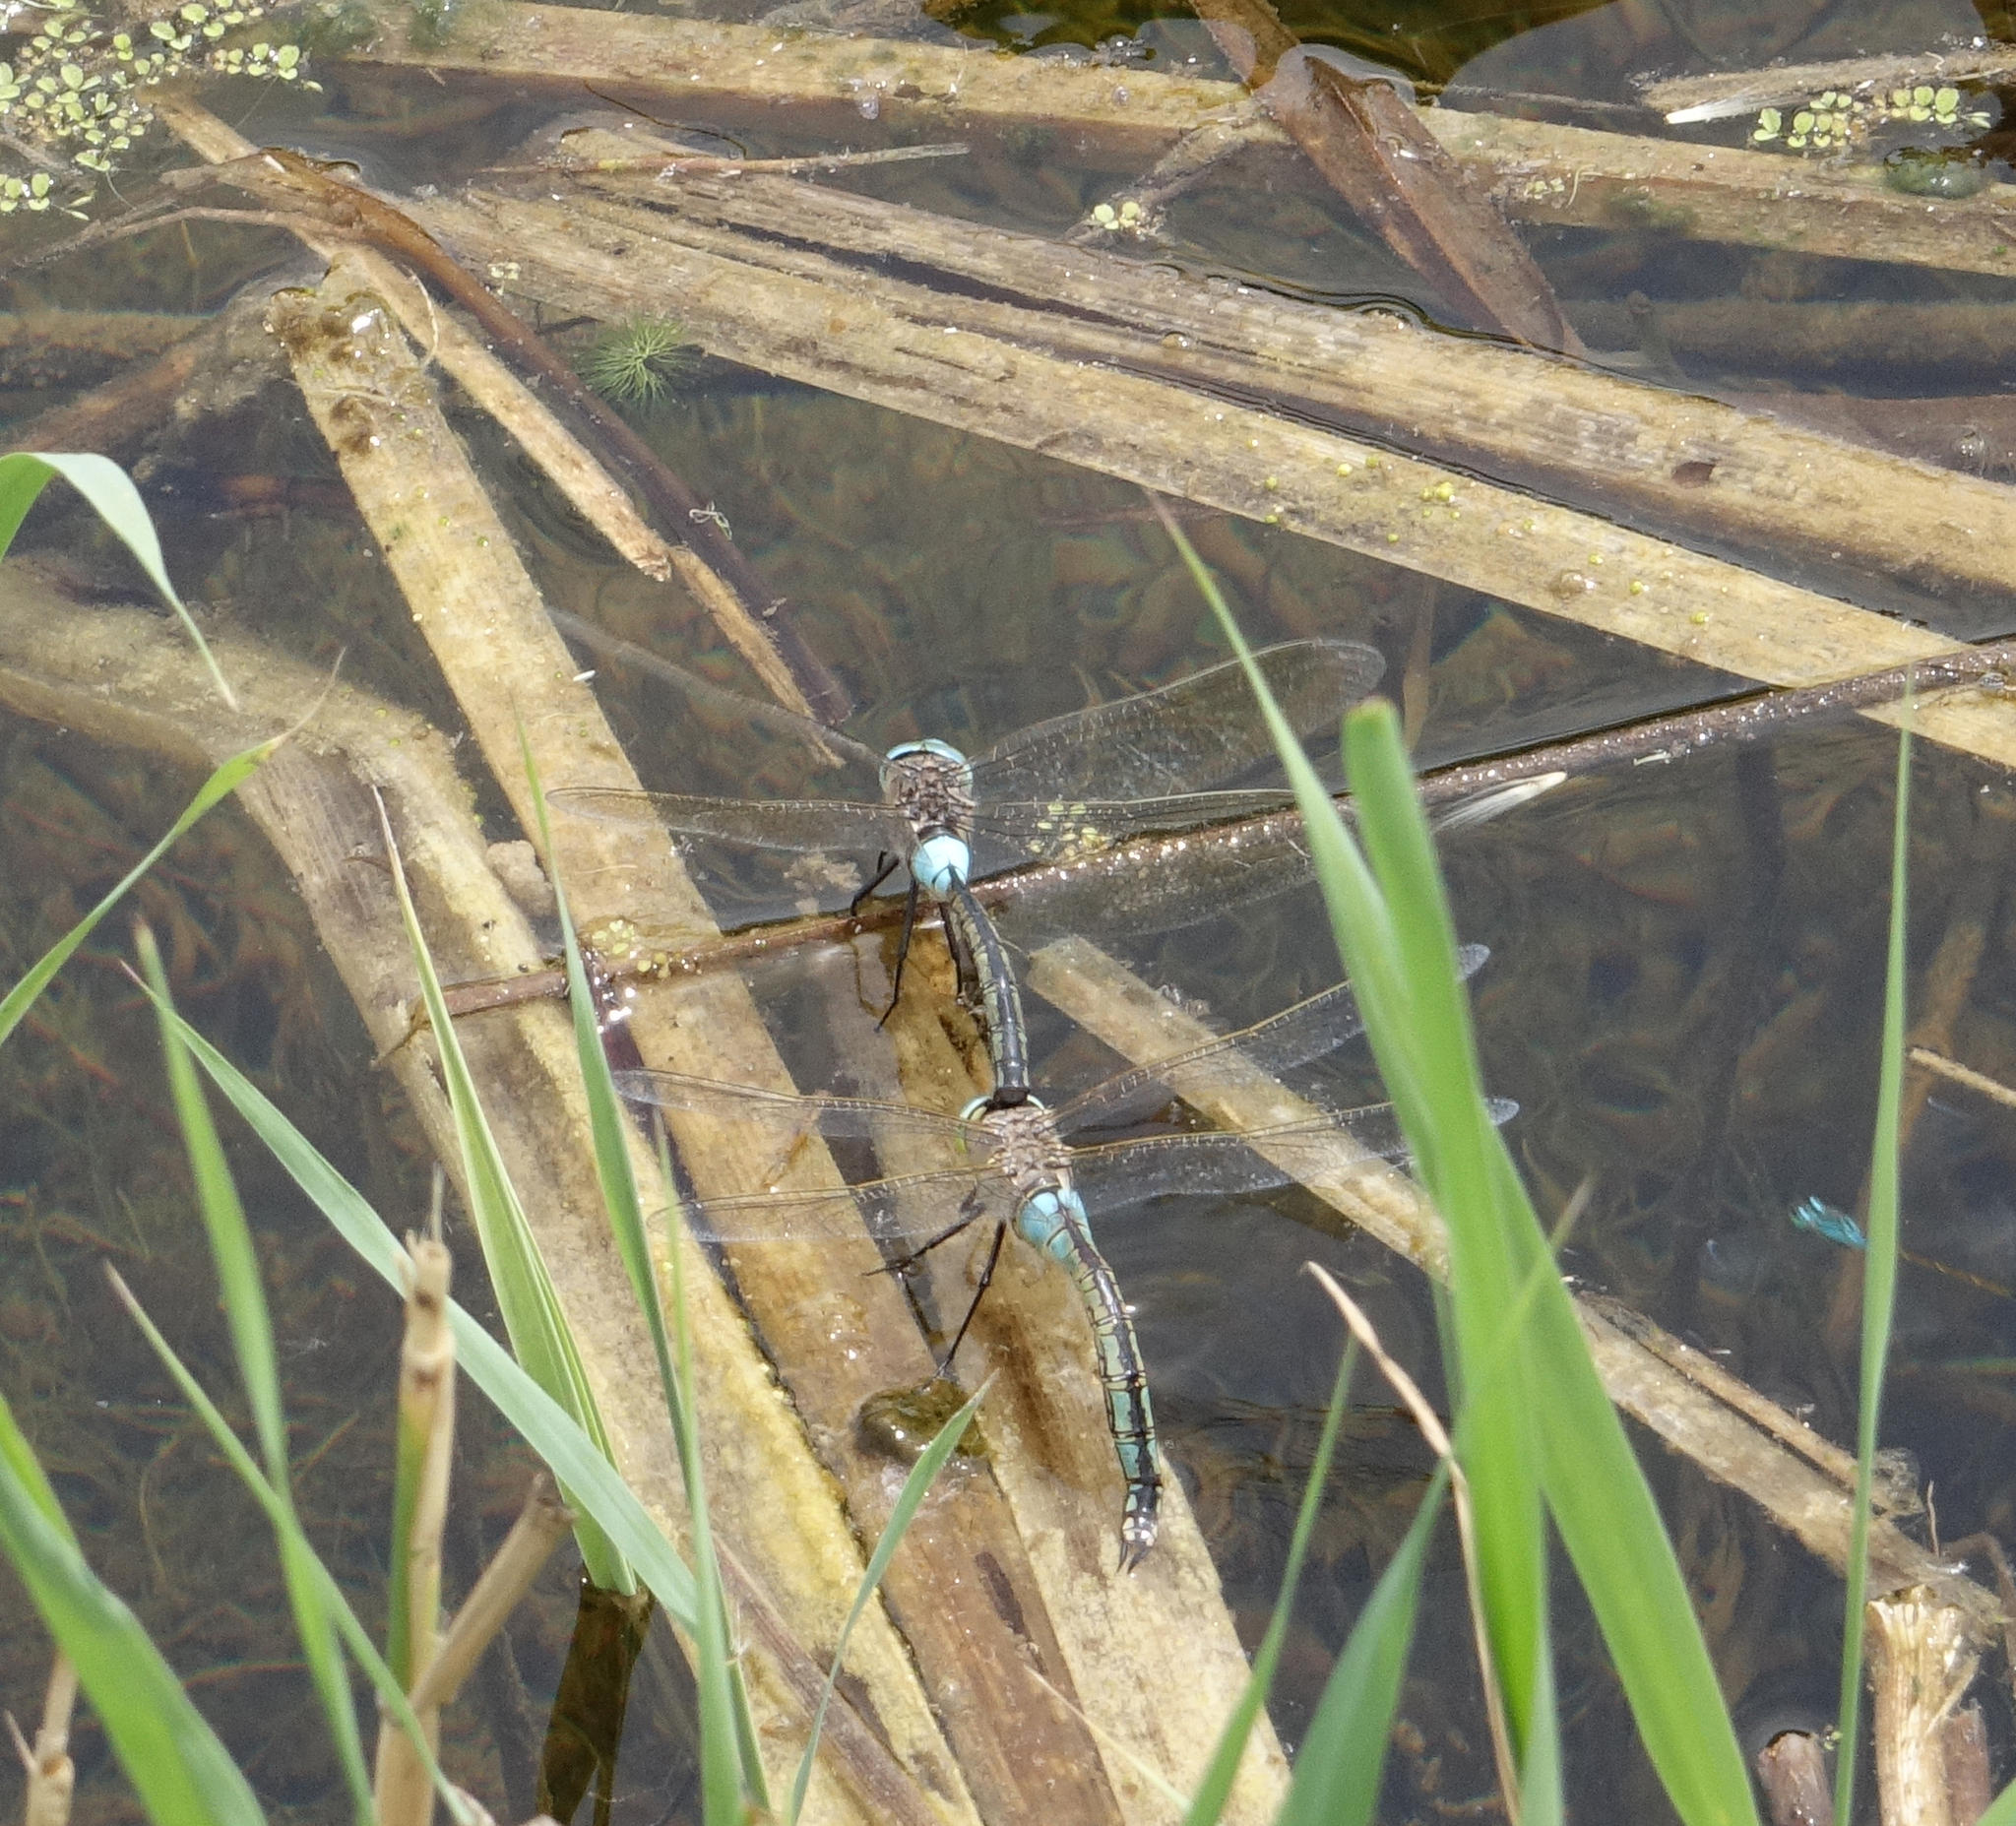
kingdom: Animalia
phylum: Arthropoda
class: Insecta
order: Odonata
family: Aeshnidae
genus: Anax
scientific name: Anax parthenope
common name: Lesser emperor
